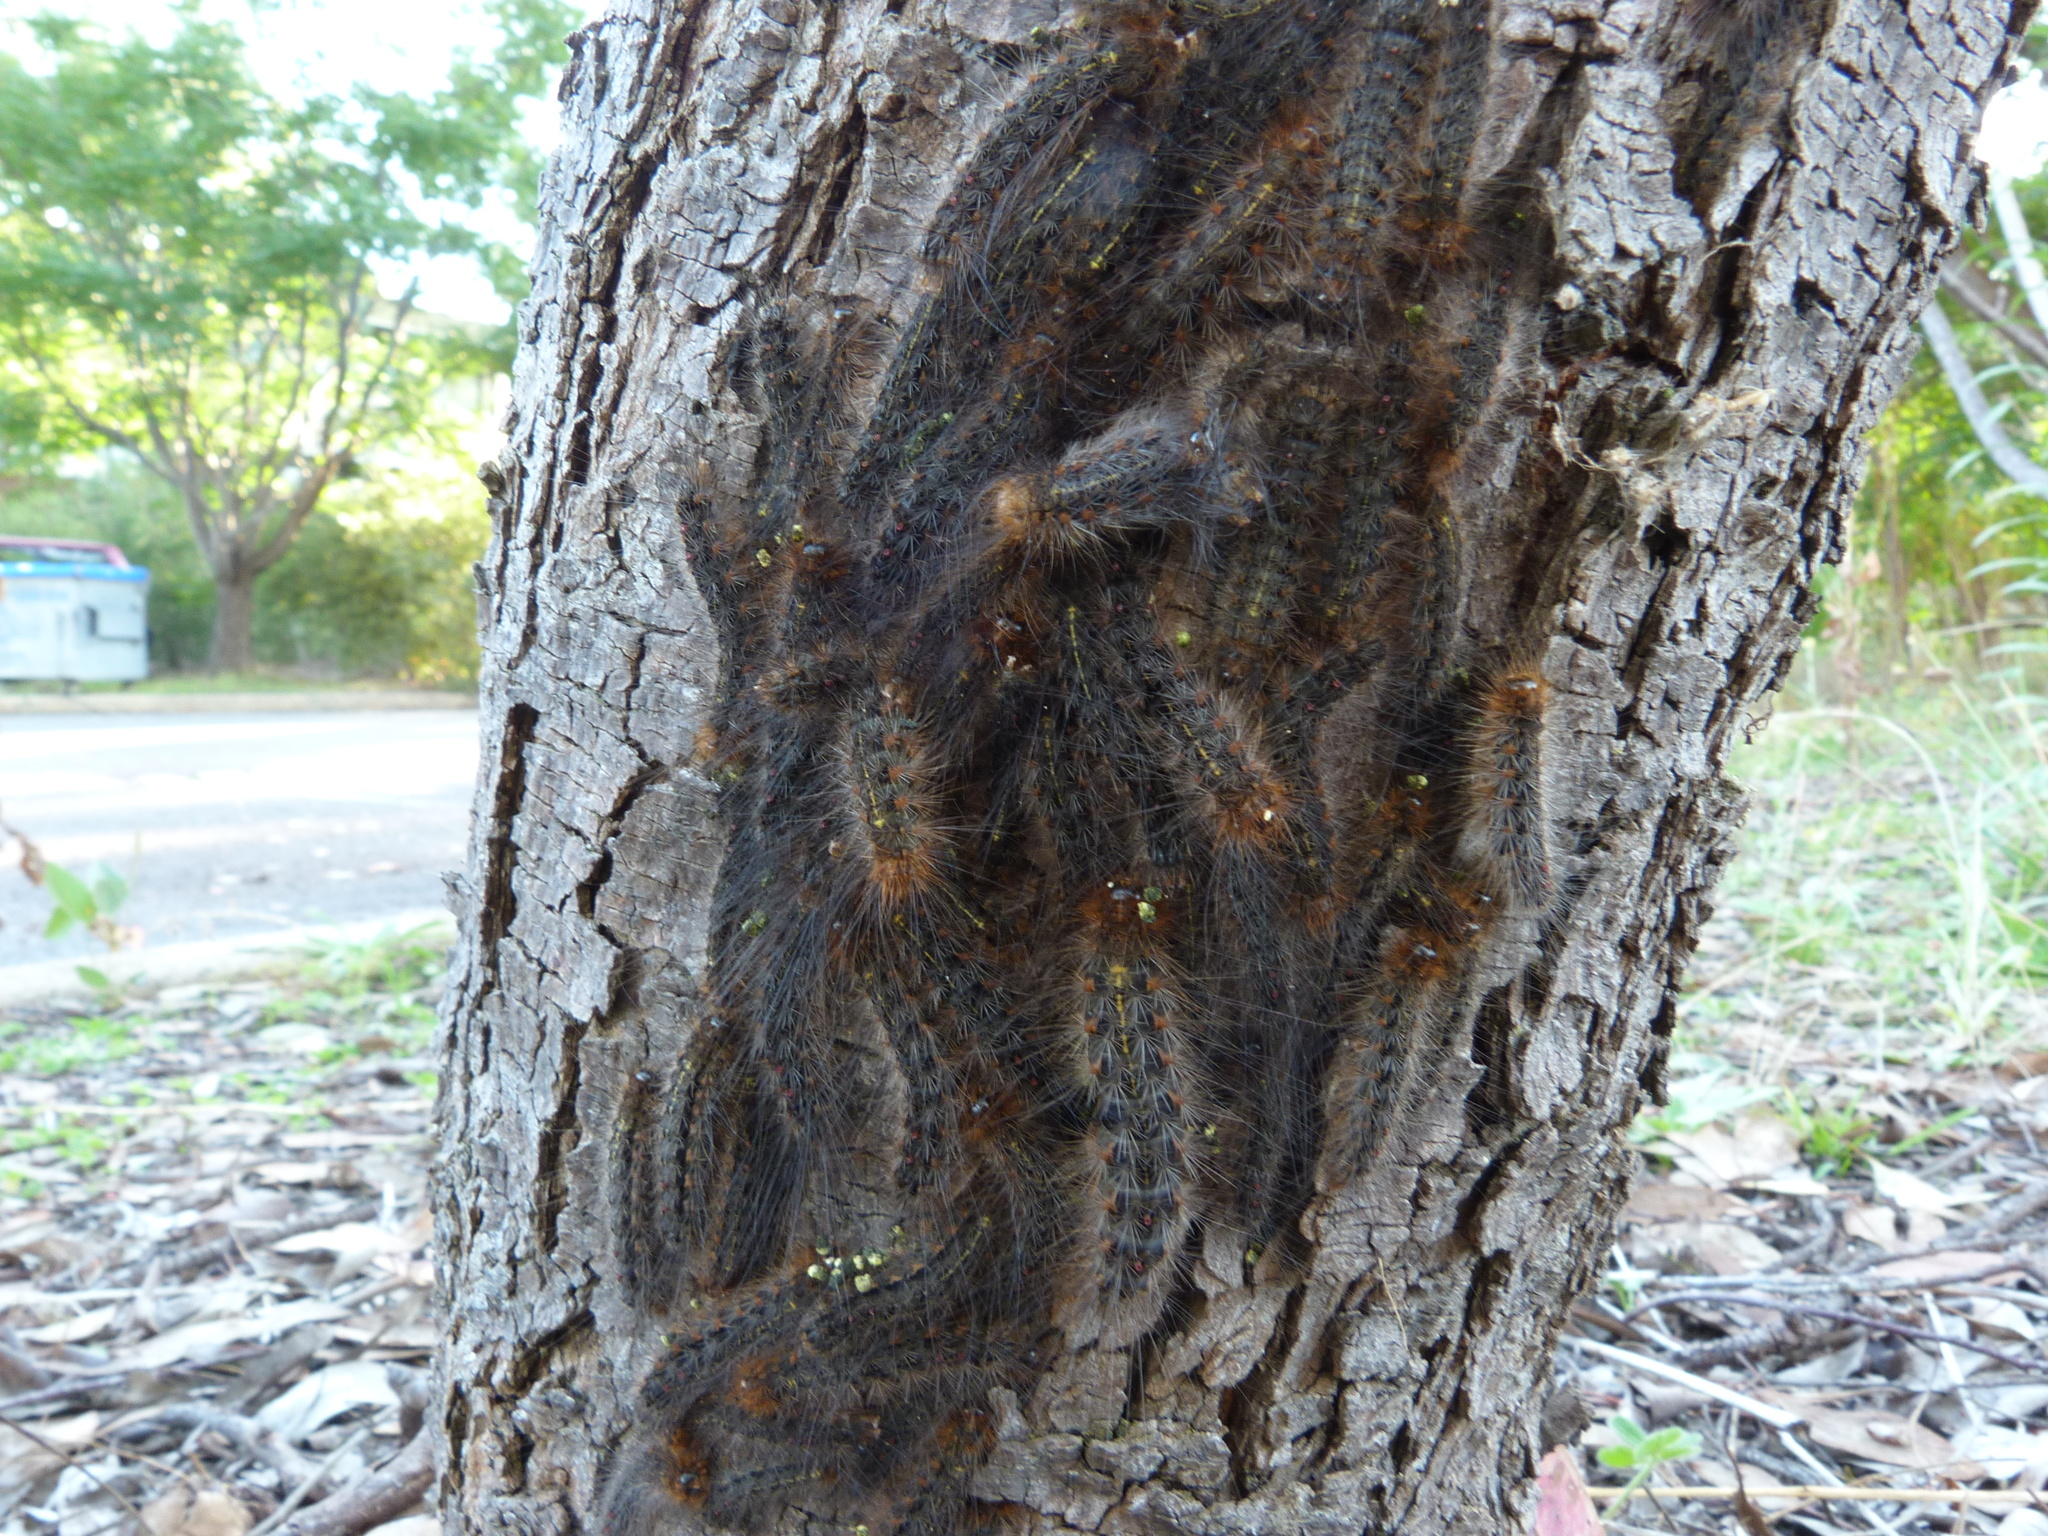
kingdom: Animalia
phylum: Arthropoda
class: Insecta
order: Lepidoptera
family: Erebidae
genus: Leptocneria
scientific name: Leptocneria reducta
